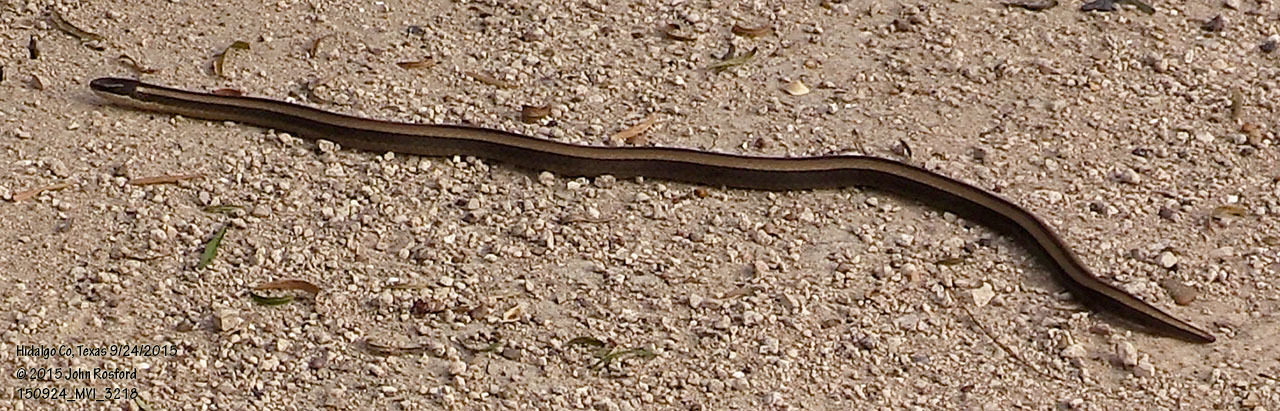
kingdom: Animalia
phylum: Chordata
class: Squamata
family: Colubridae
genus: Coniophanes
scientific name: Coniophanes imperialis
